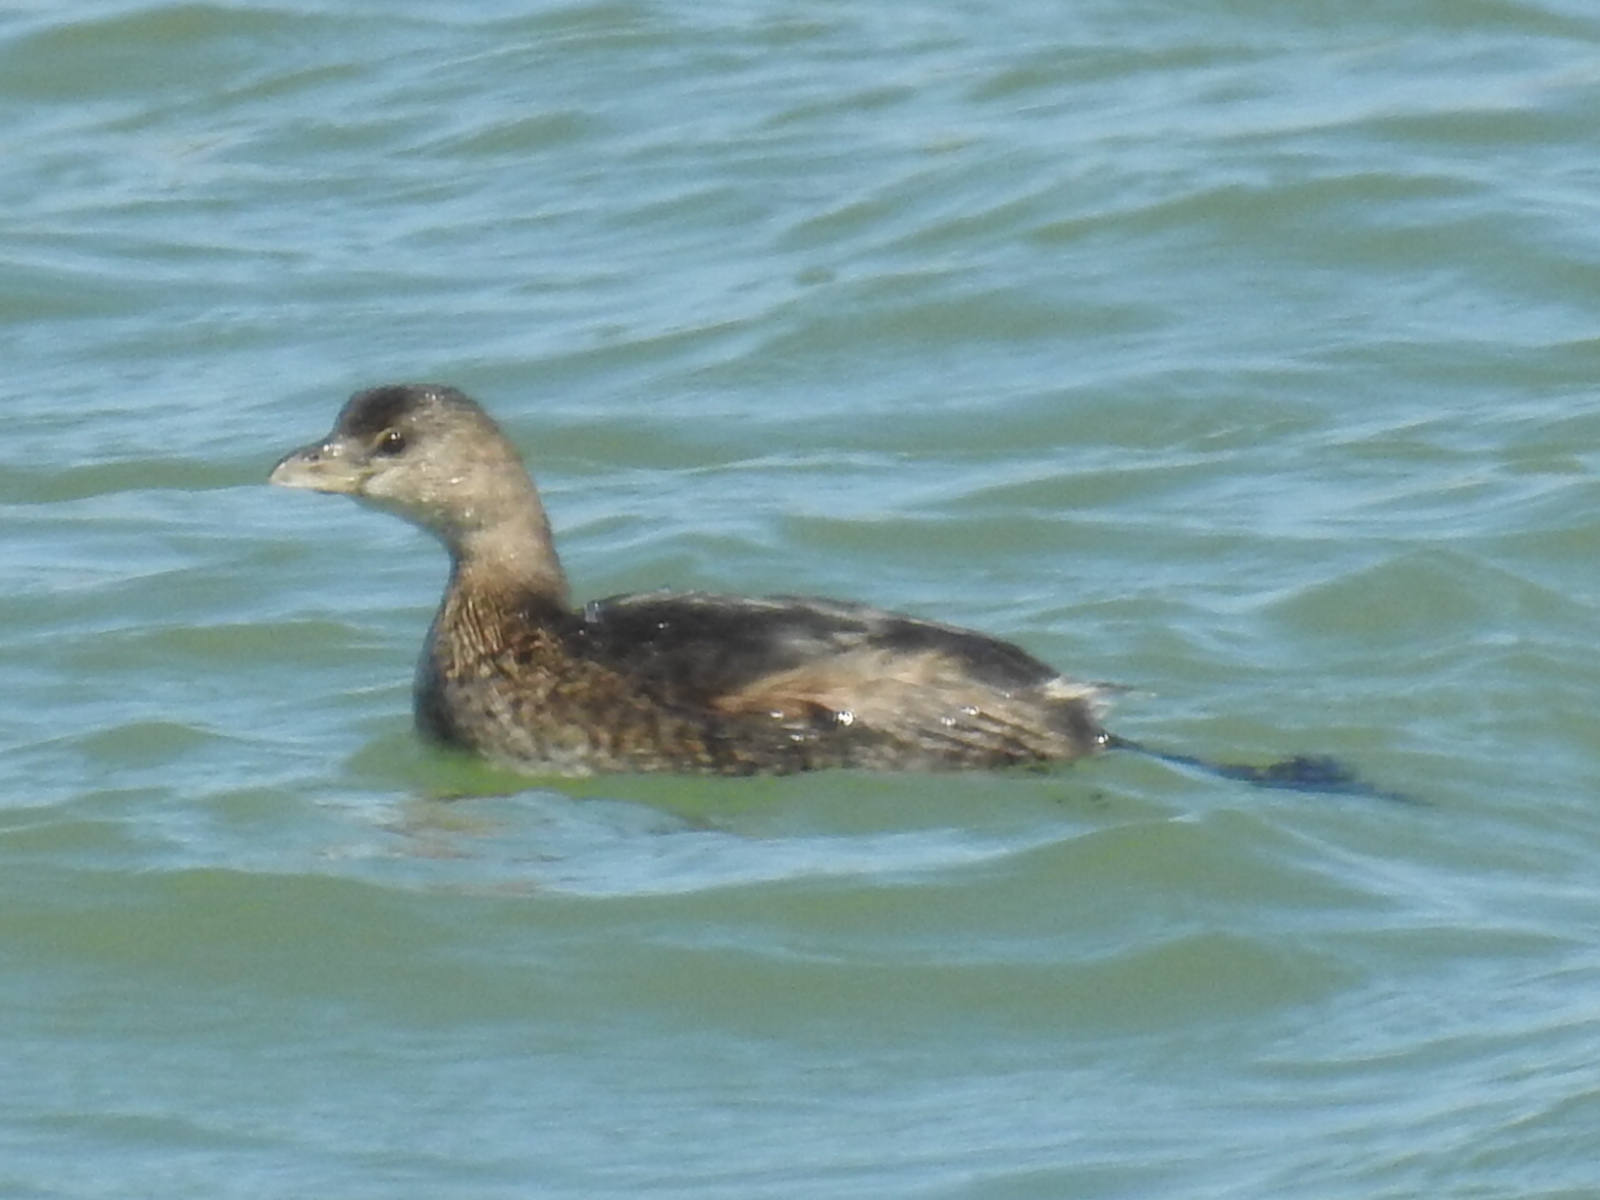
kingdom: Animalia
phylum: Chordata
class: Aves
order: Podicipediformes
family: Podicipedidae
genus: Podilymbus
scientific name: Podilymbus podiceps
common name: Pied-billed grebe
